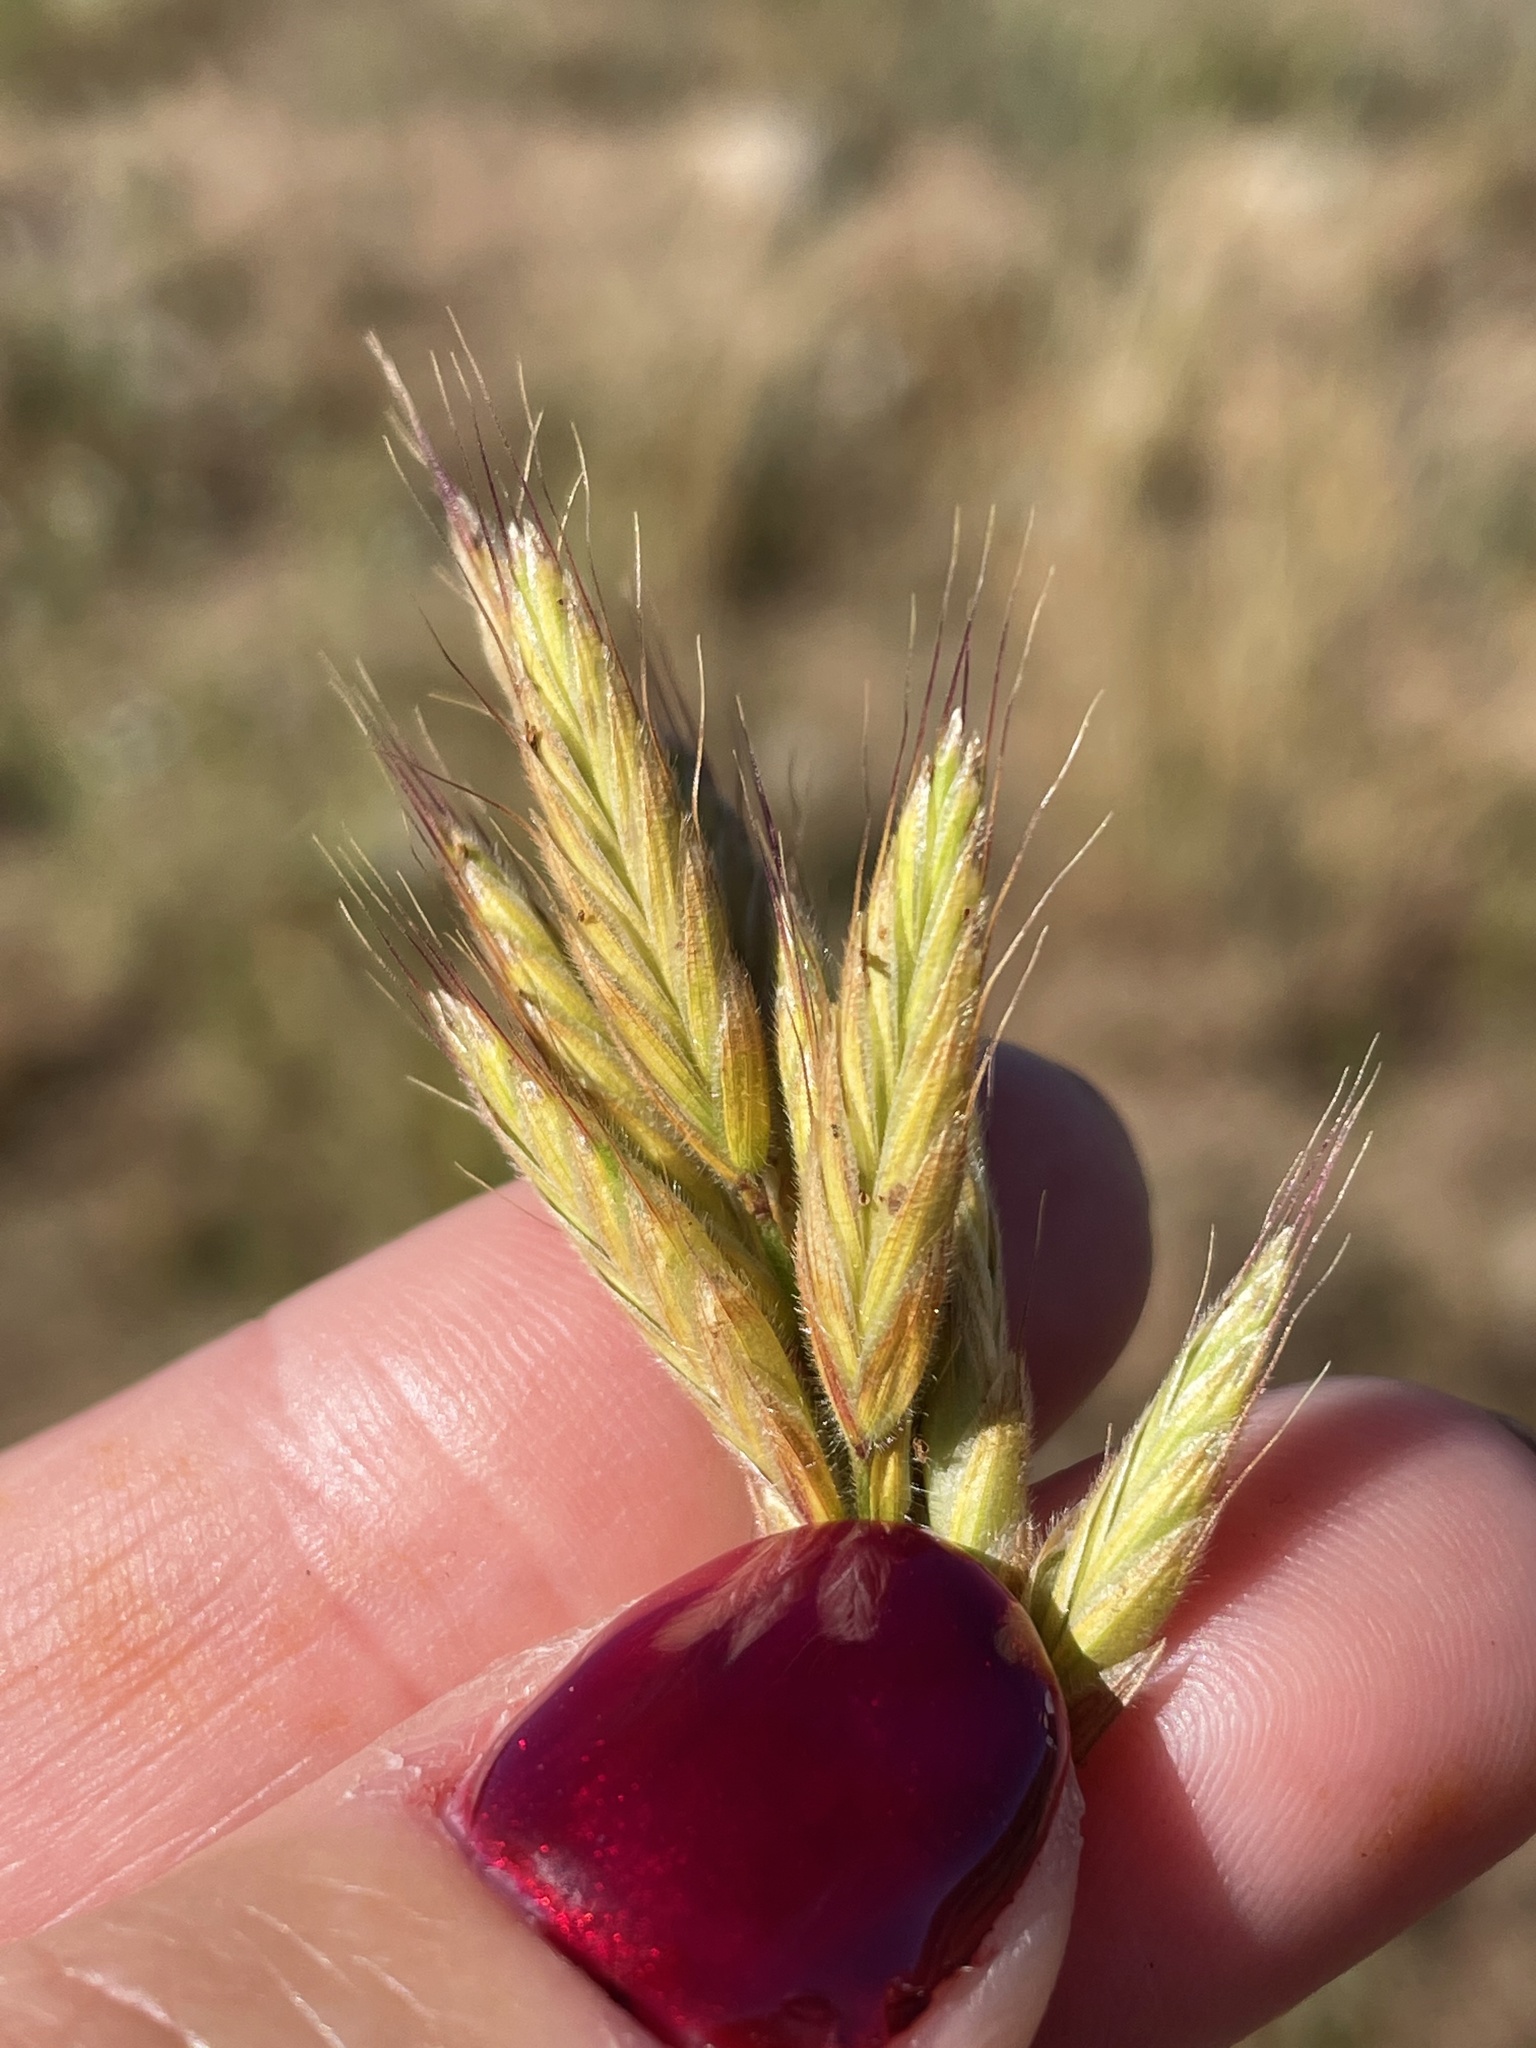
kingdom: Plantae
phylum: Tracheophyta
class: Liliopsida
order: Poales
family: Poaceae
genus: Bromus
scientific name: Bromus hordeaceus
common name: Soft brome
